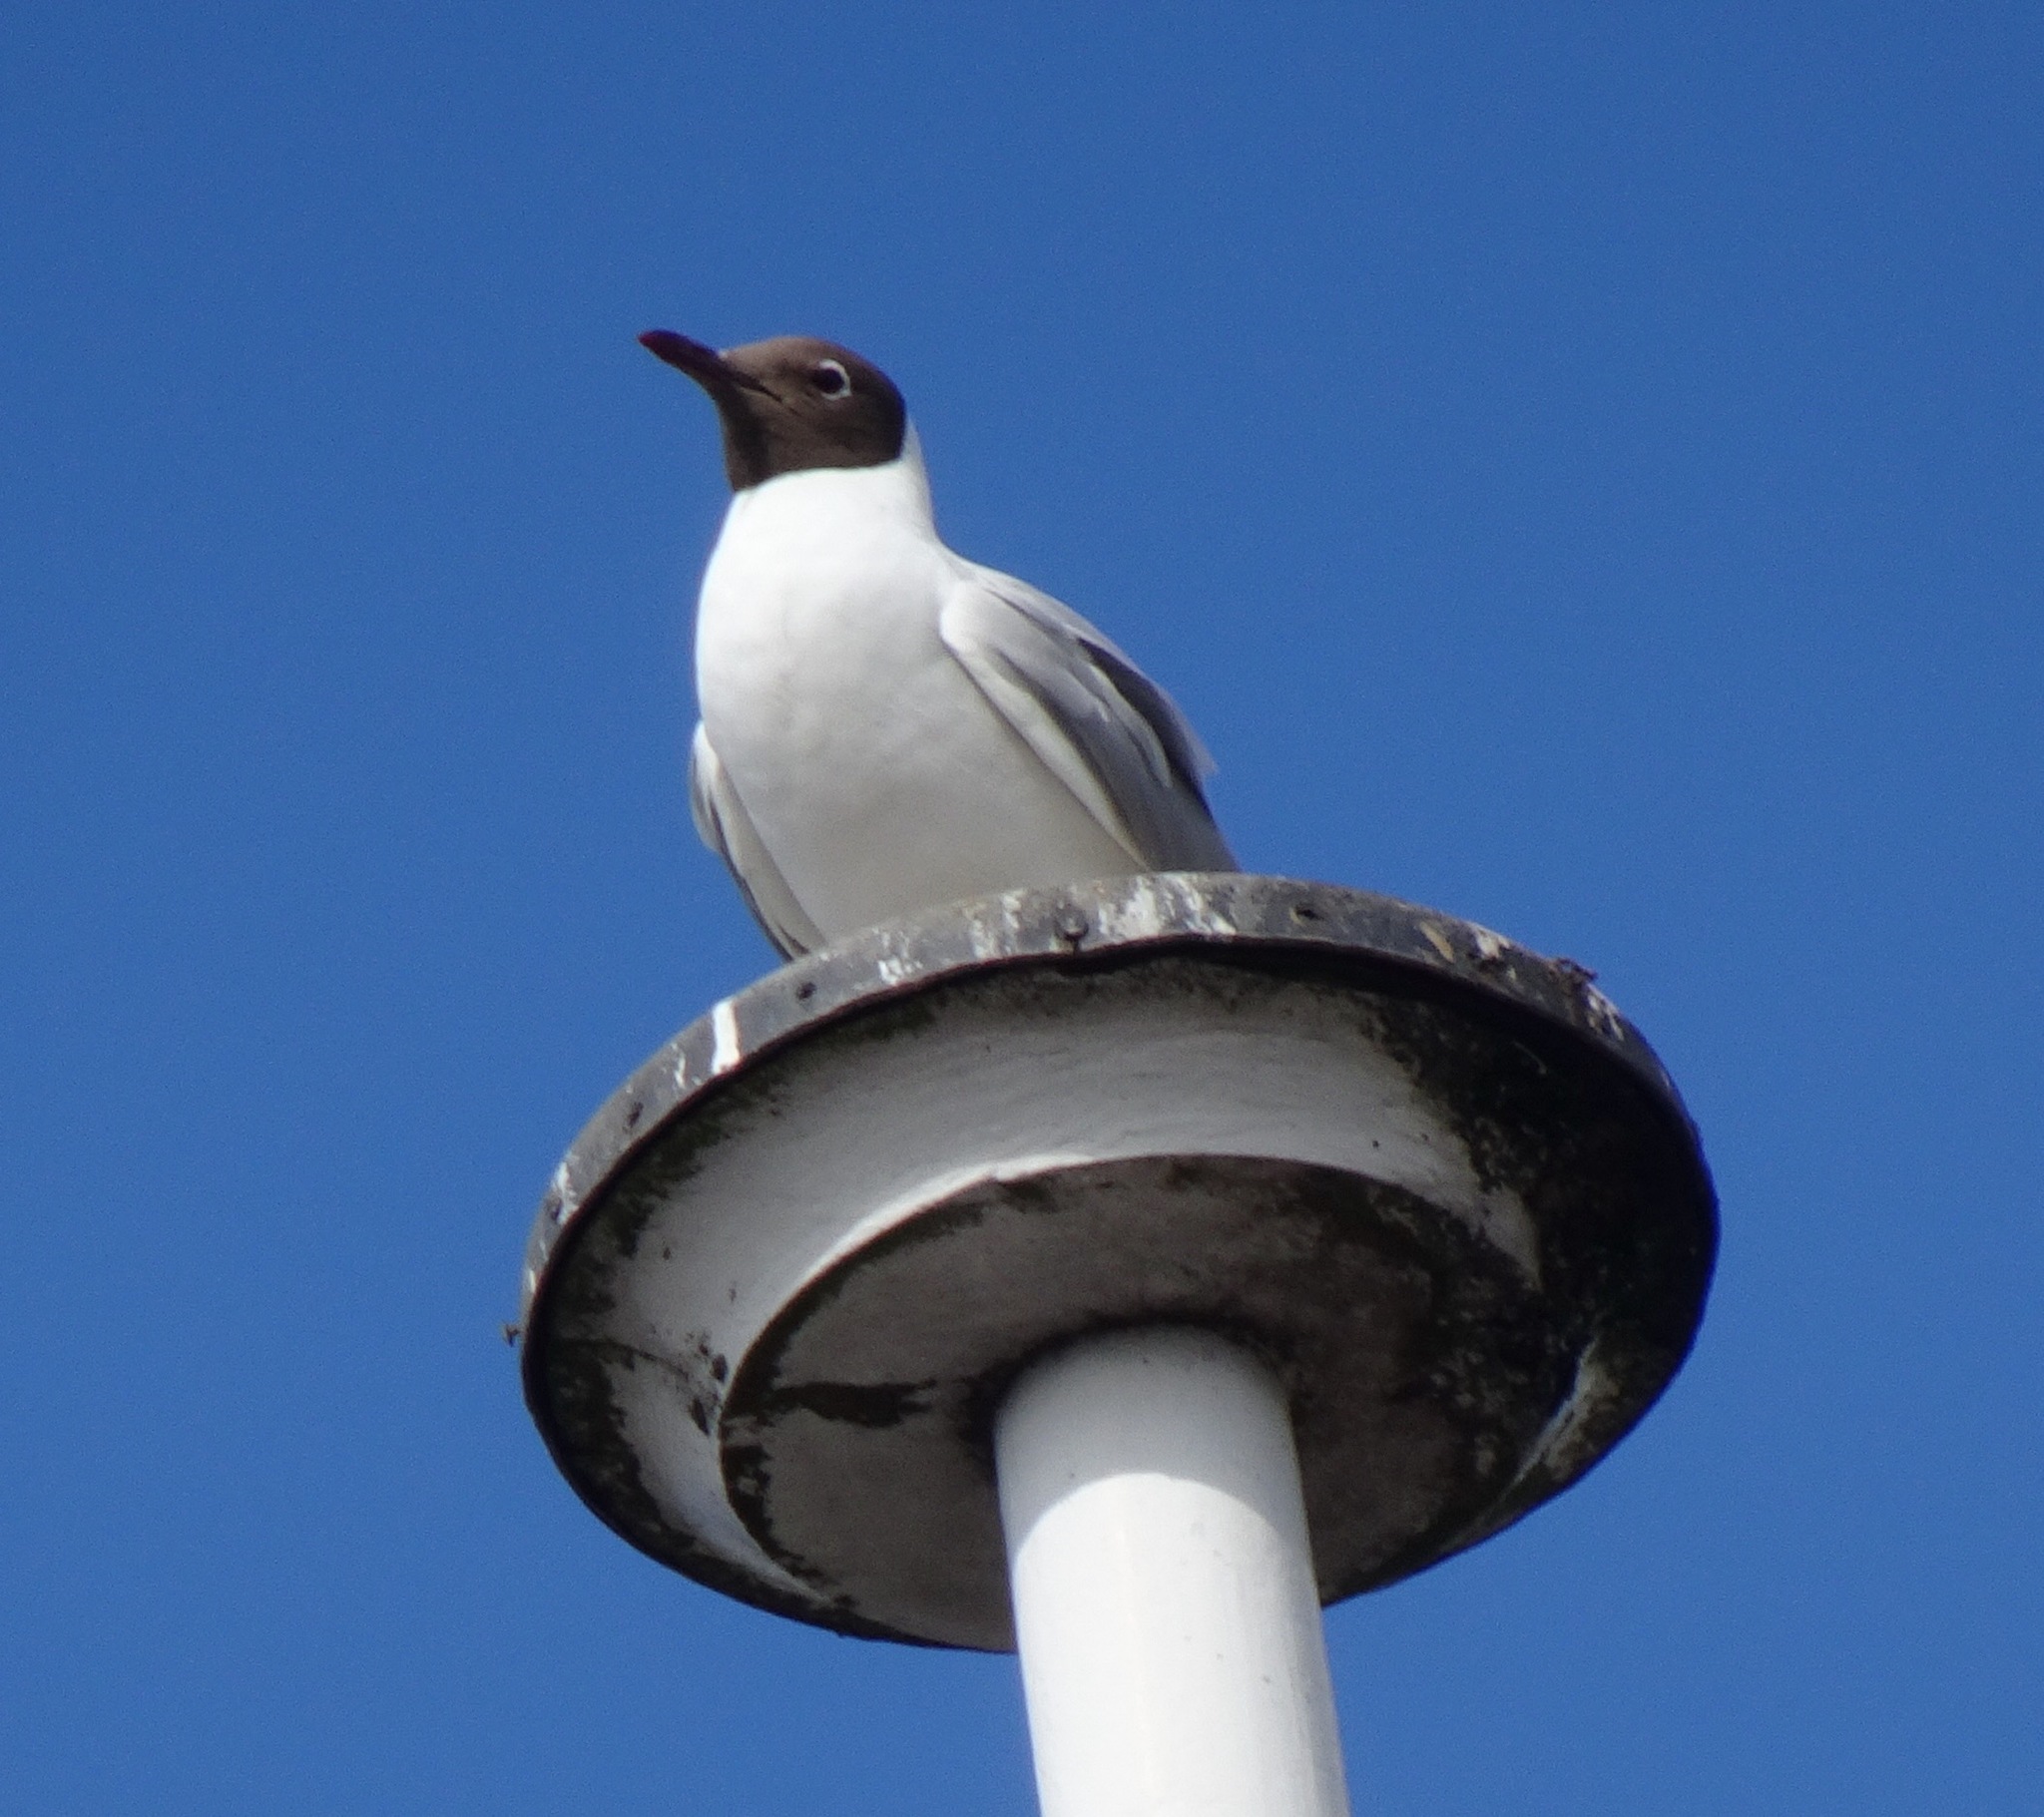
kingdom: Animalia
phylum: Chordata
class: Aves
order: Charadriiformes
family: Laridae
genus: Chroicocephalus
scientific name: Chroicocephalus ridibundus
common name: Black-headed gull
